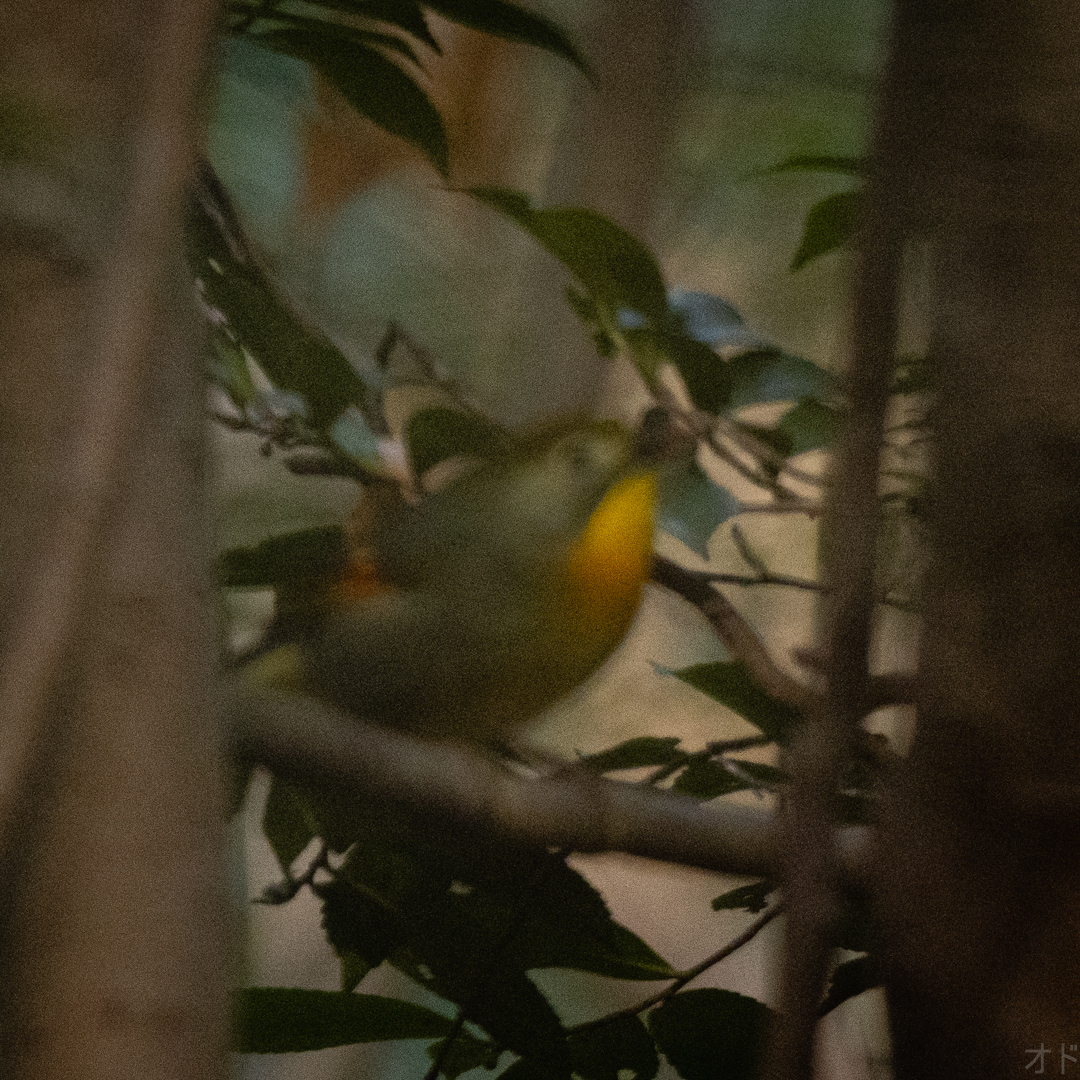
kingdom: Animalia
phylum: Chordata
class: Aves
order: Passeriformes
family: Leiothrichidae
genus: Leiothrix
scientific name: Leiothrix lutea
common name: Red-billed leiothrix
